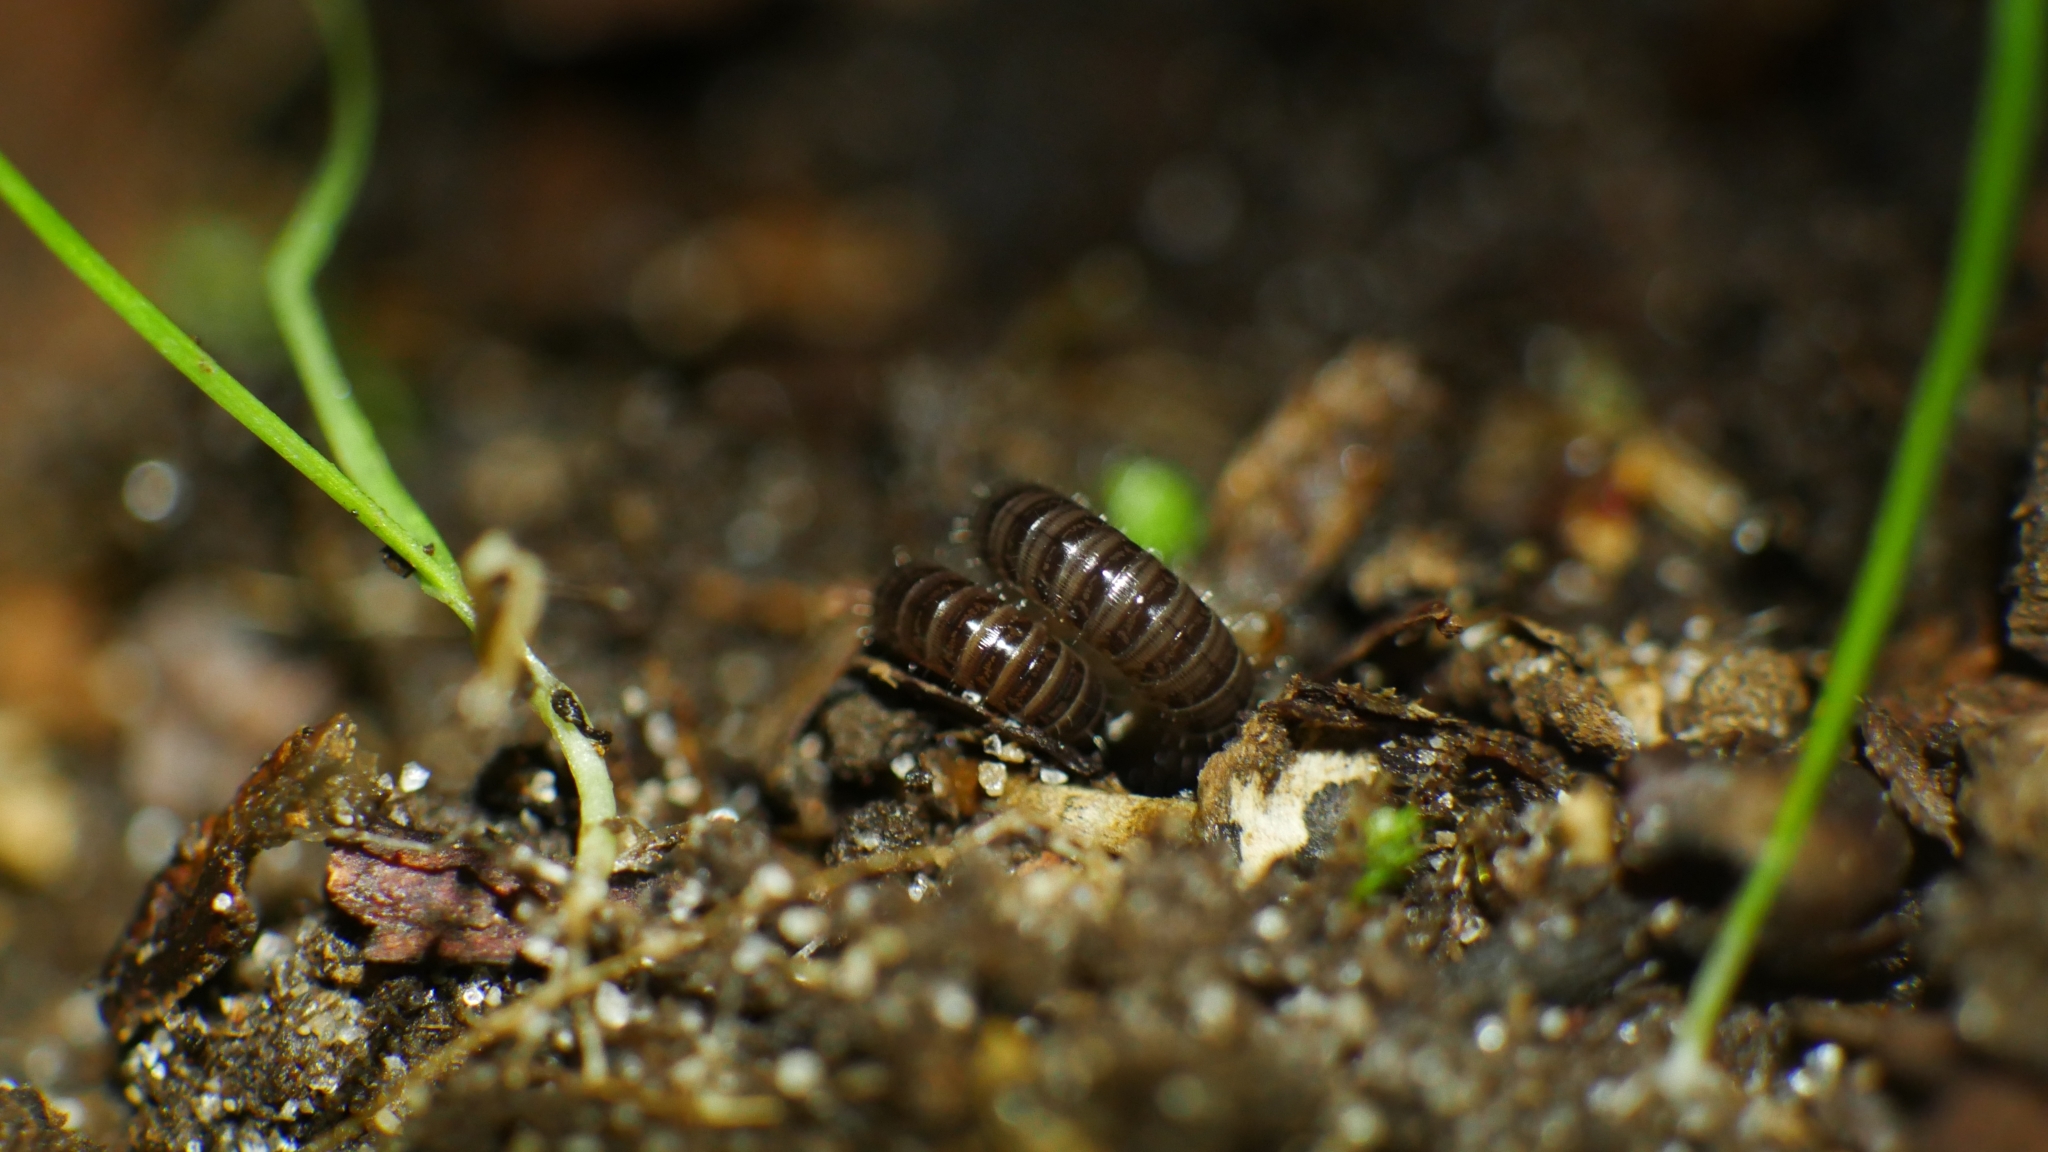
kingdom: Animalia
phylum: Arthropoda
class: Diplopoda
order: Julida
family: Julidae
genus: Ophyiulus
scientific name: Ophyiulus pilosus
